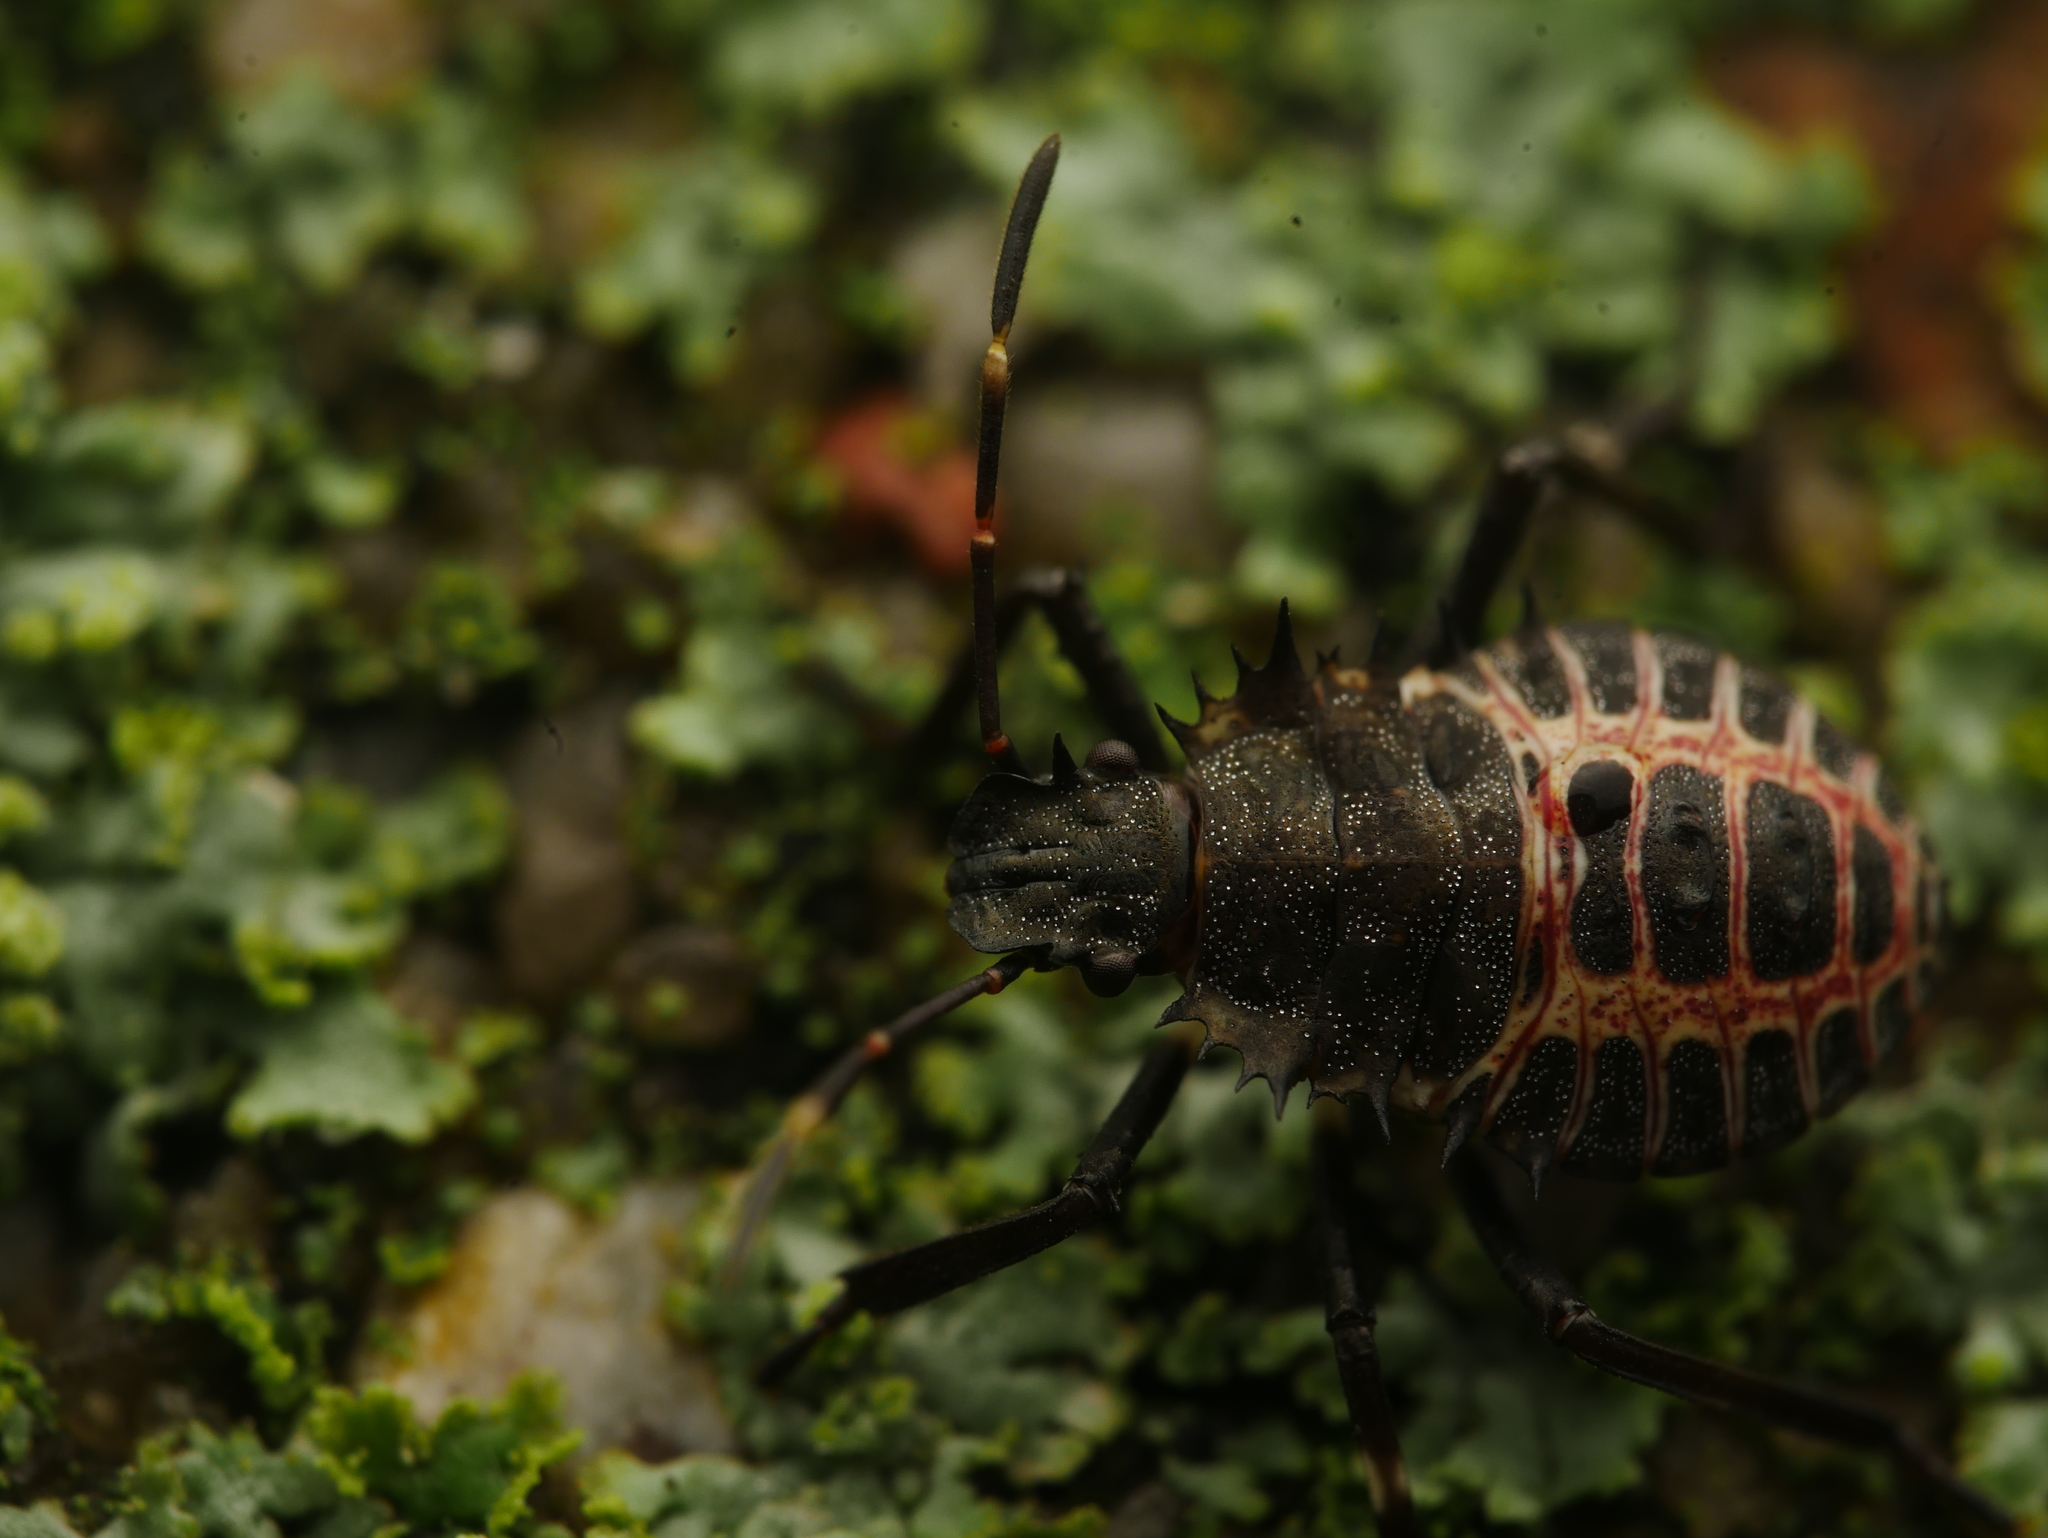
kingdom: Animalia
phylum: Arthropoda
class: Insecta
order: Hemiptera
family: Pentatomidae
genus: Halyomorpha
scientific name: Halyomorpha halys
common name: Brown marmorated stink bug
